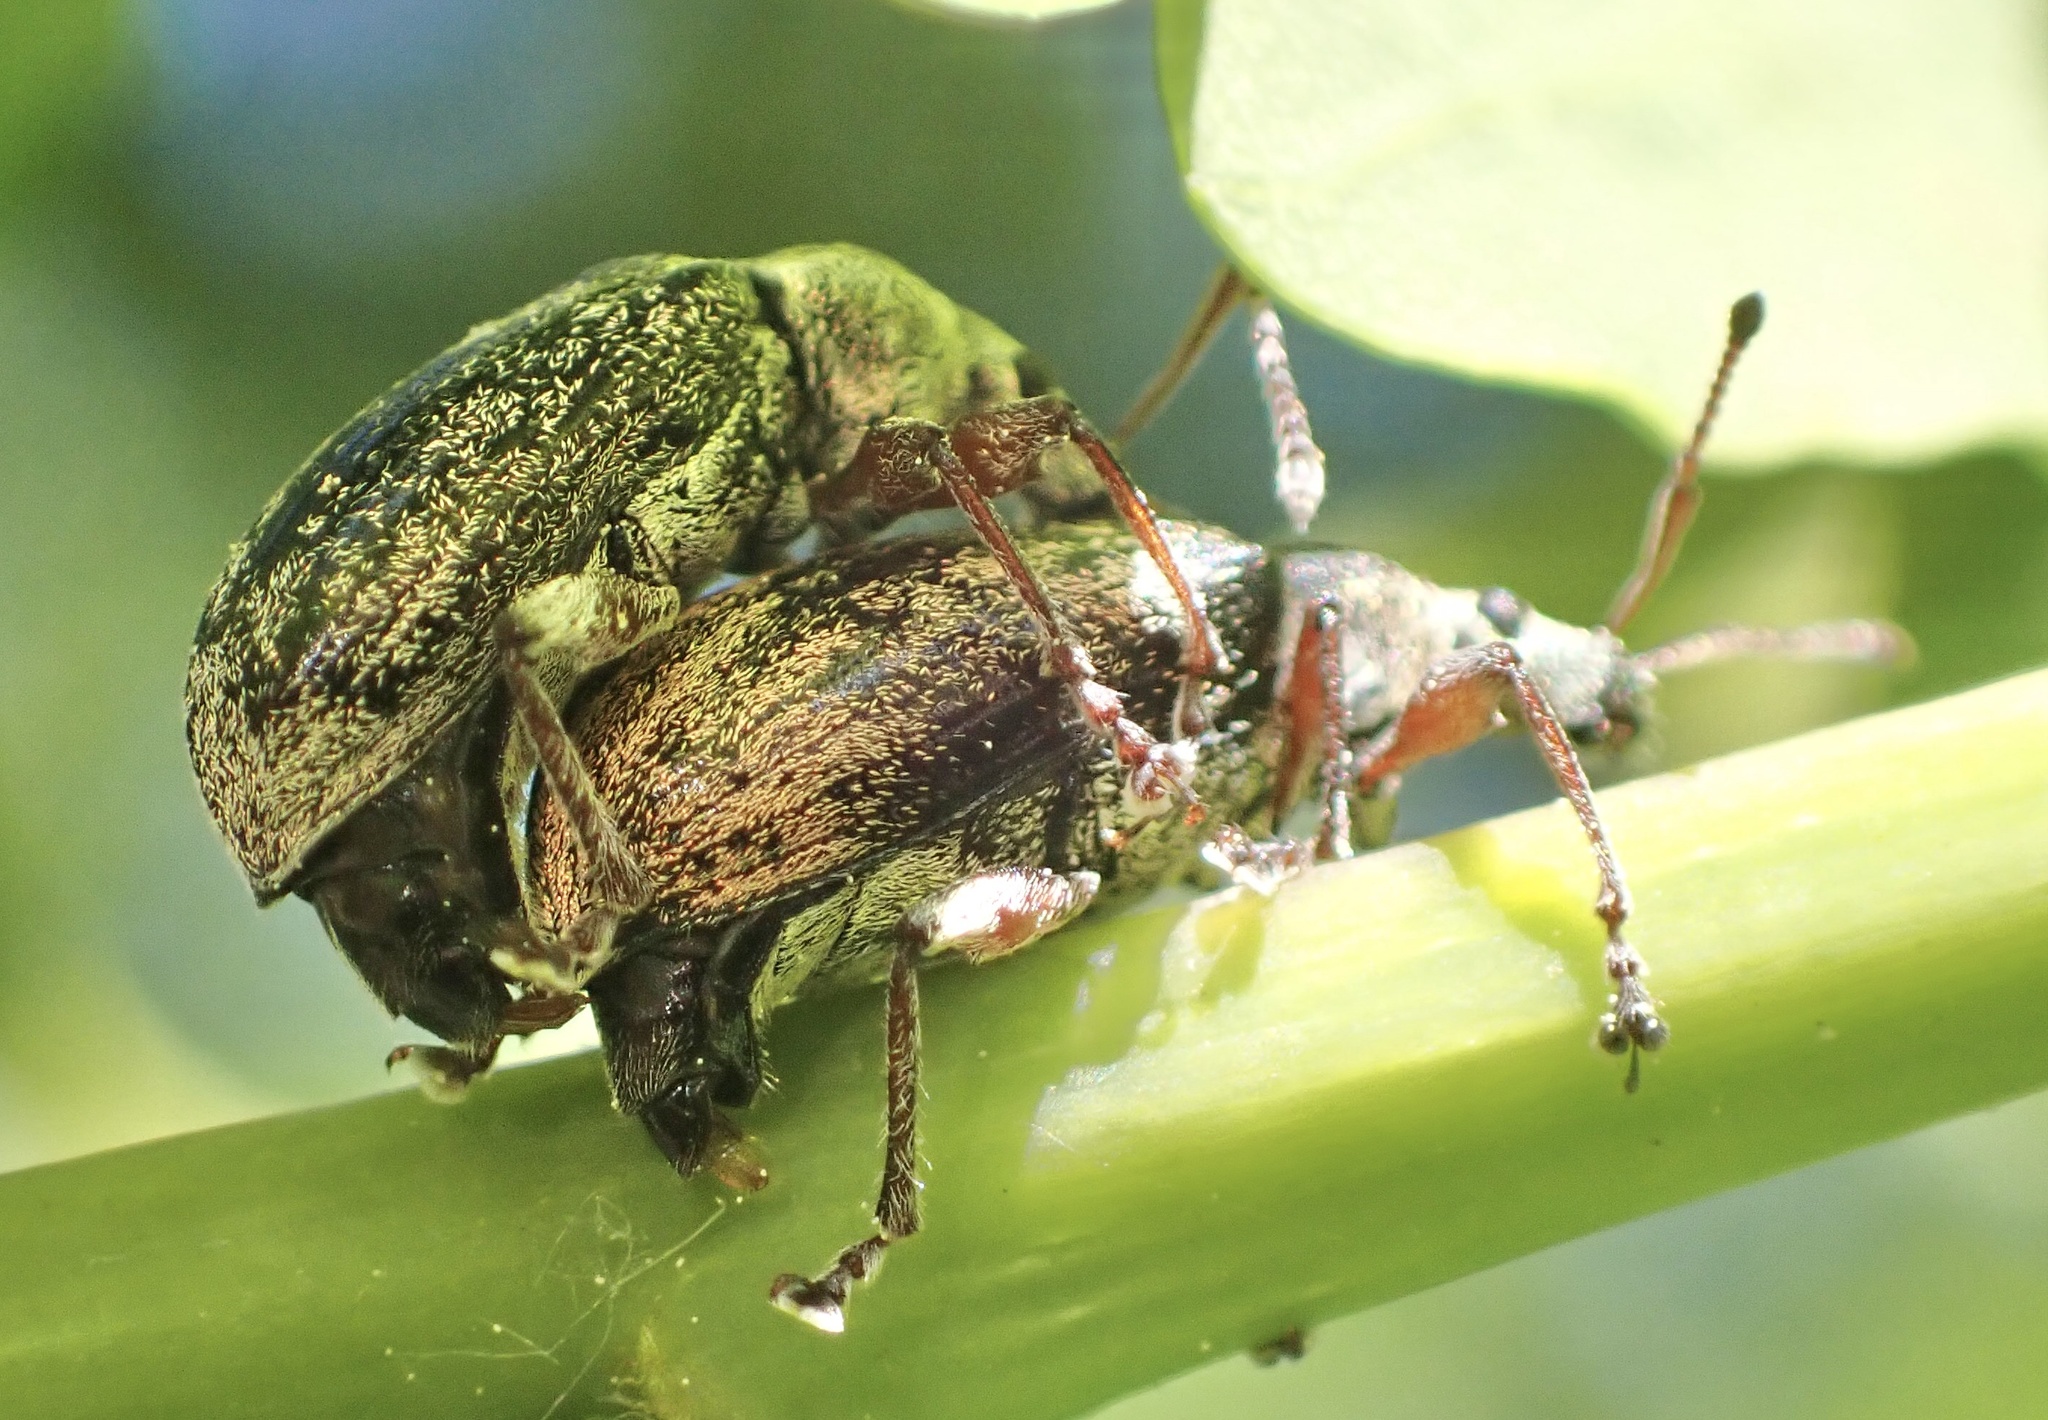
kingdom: Animalia
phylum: Arthropoda
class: Insecta
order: Coleoptera
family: Curculionidae
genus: Phyllobius
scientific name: Phyllobius pyri
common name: Common leaf weevil
